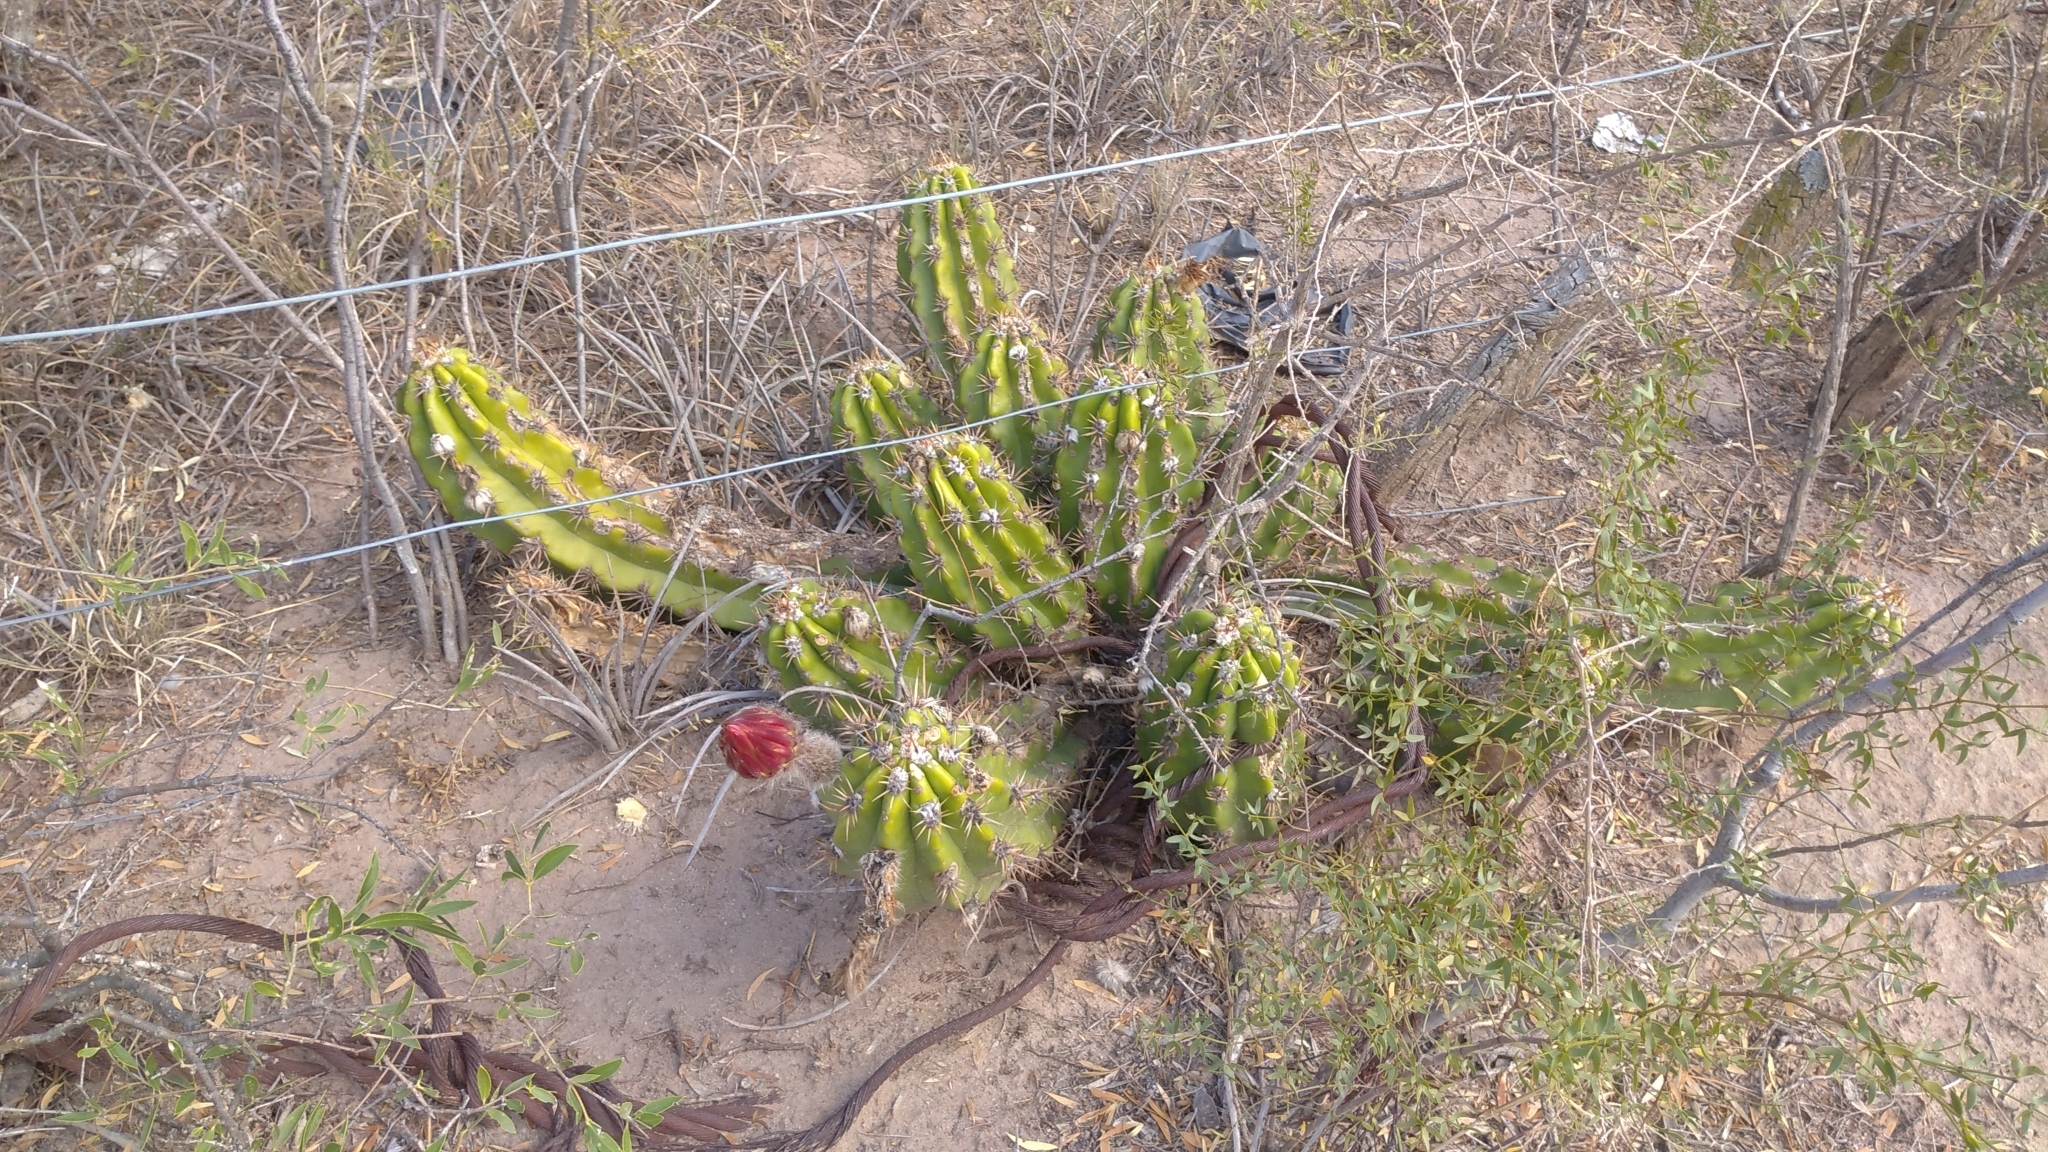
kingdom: Plantae
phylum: Tracheophyta
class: Magnoliopsida
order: Caryophyllales
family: Cactaceae
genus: Soehrensia
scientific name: Soehrensia candicans
